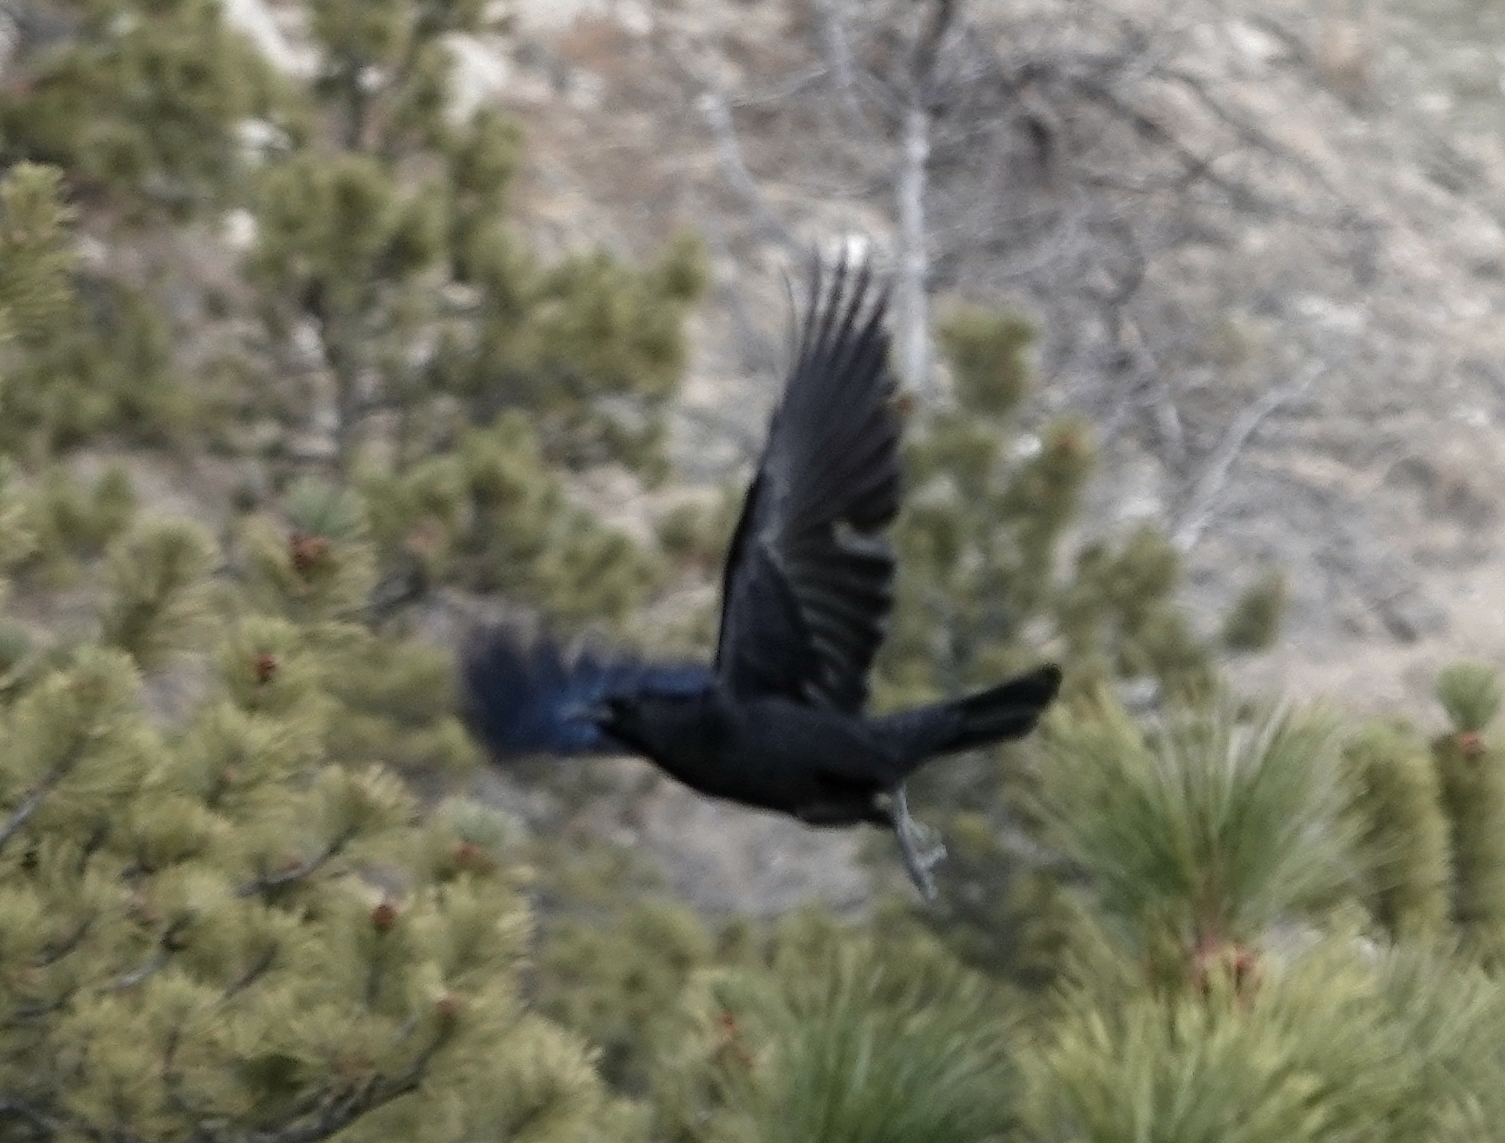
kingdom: Animalia
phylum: Chordata
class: Aves
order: Passeriformes
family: Corvidae
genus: Corvus
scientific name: Corvus brachyrhynchos
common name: American crow
